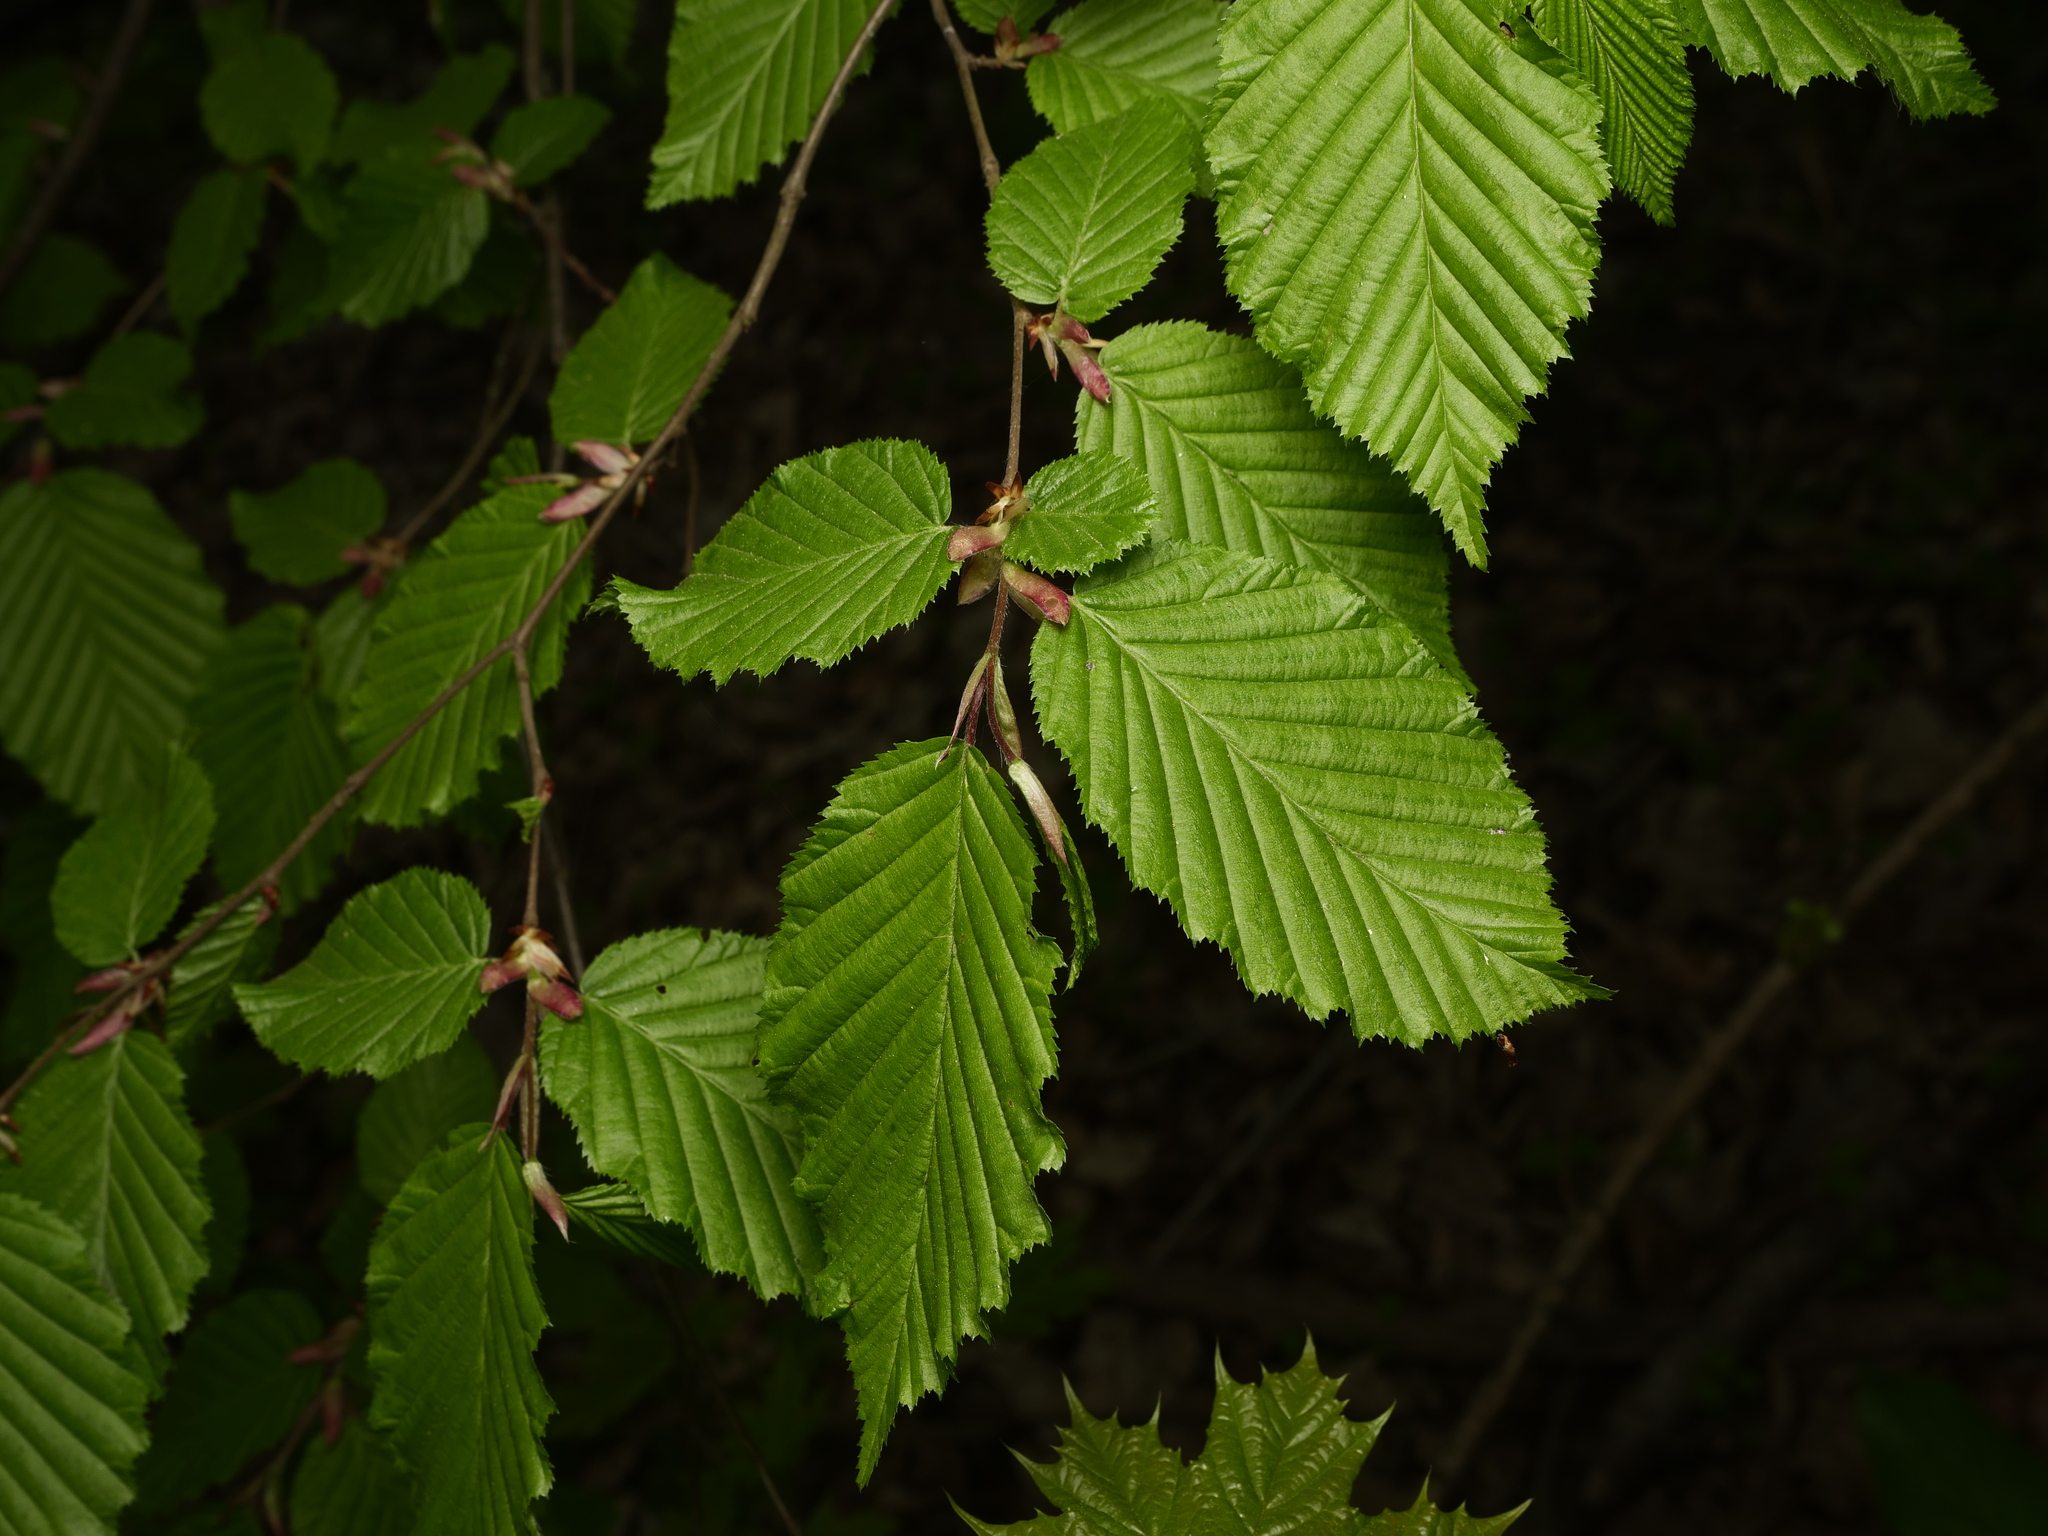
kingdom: Plantae
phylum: Tracheophyta
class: Magnoliopsida
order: Fagales
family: Betulaceae
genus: Carpinus
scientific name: Carpinus betulus
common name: Hornbeam
